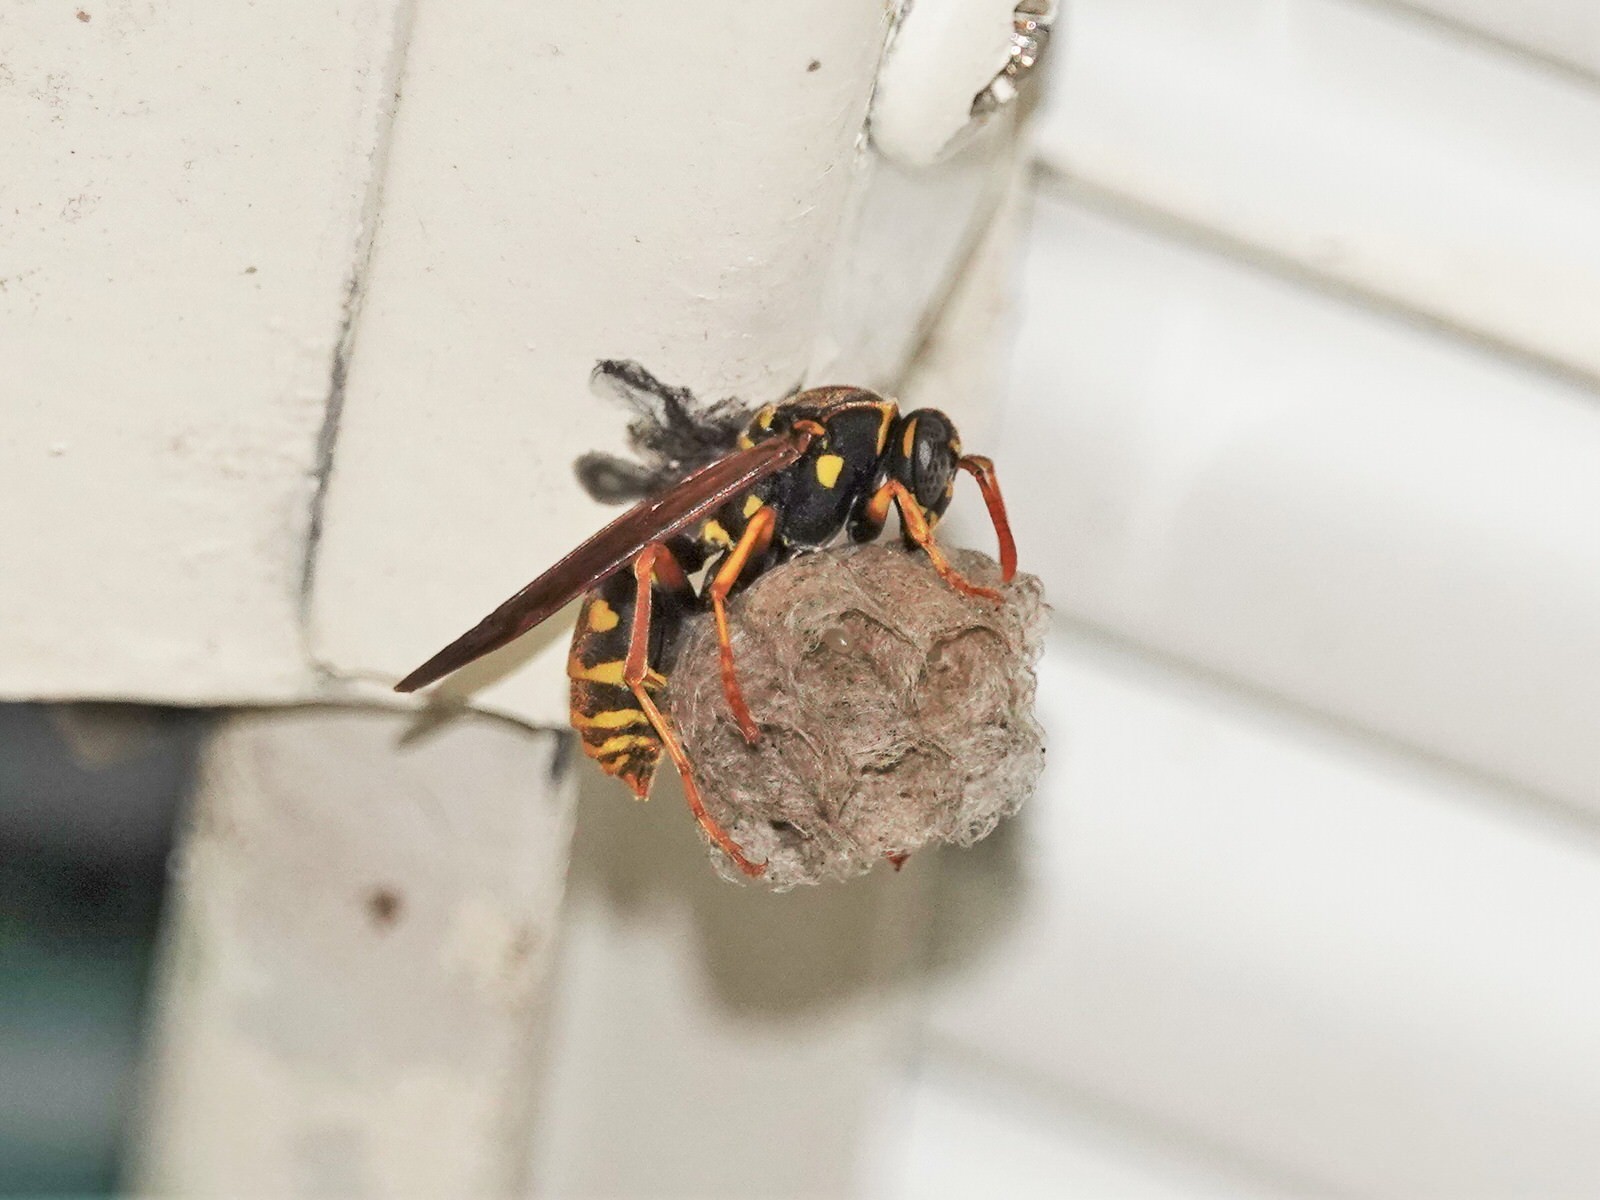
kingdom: Animalia
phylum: Arthropoda
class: Insecta
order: Hymenoptera
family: Eumenidae
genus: Polistes
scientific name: Polistes chinensis
